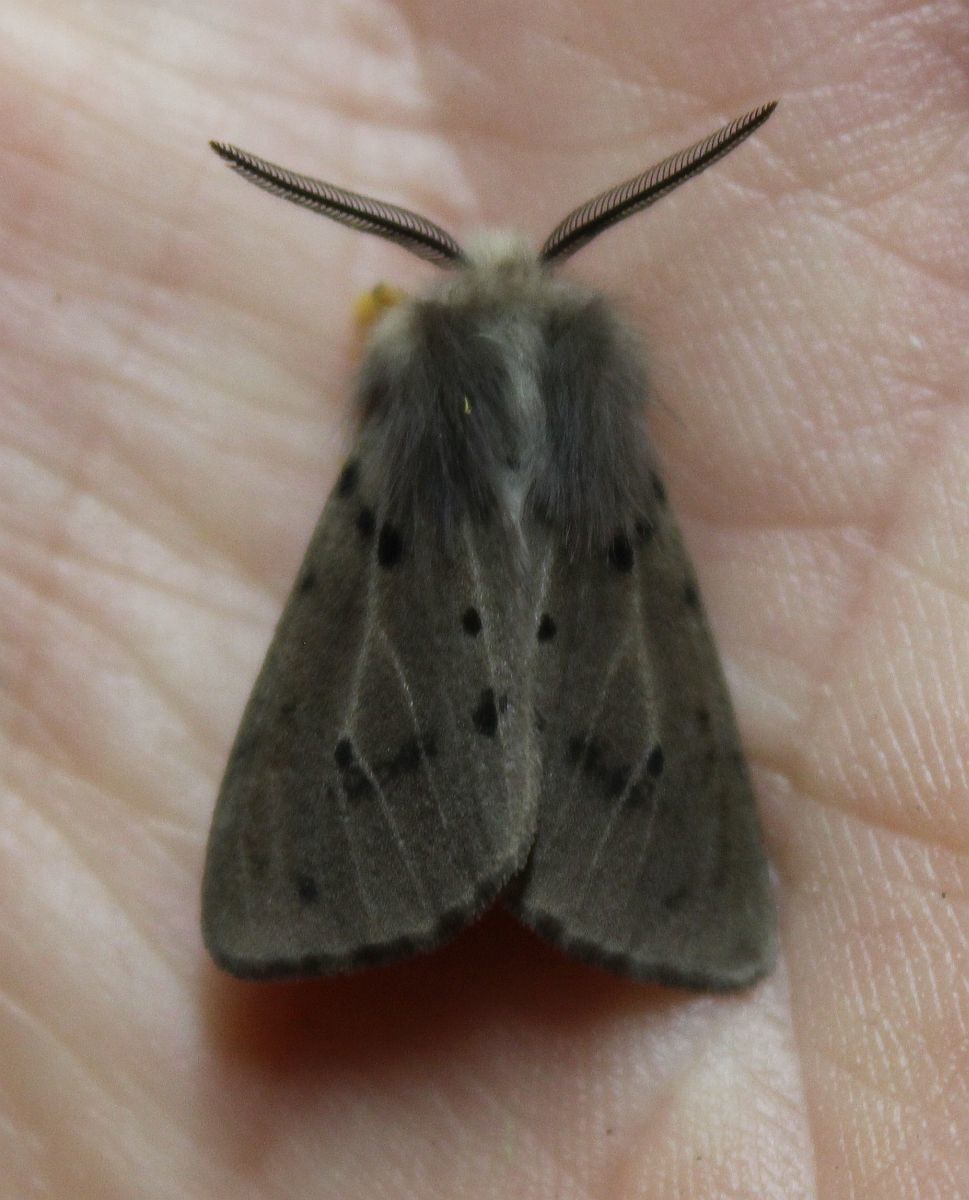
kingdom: Animalia
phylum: Arthropoda
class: Insecta
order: Lepidoptera
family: Erebidae
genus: Diaphora
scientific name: Diaphora mendica
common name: Muslin moth
